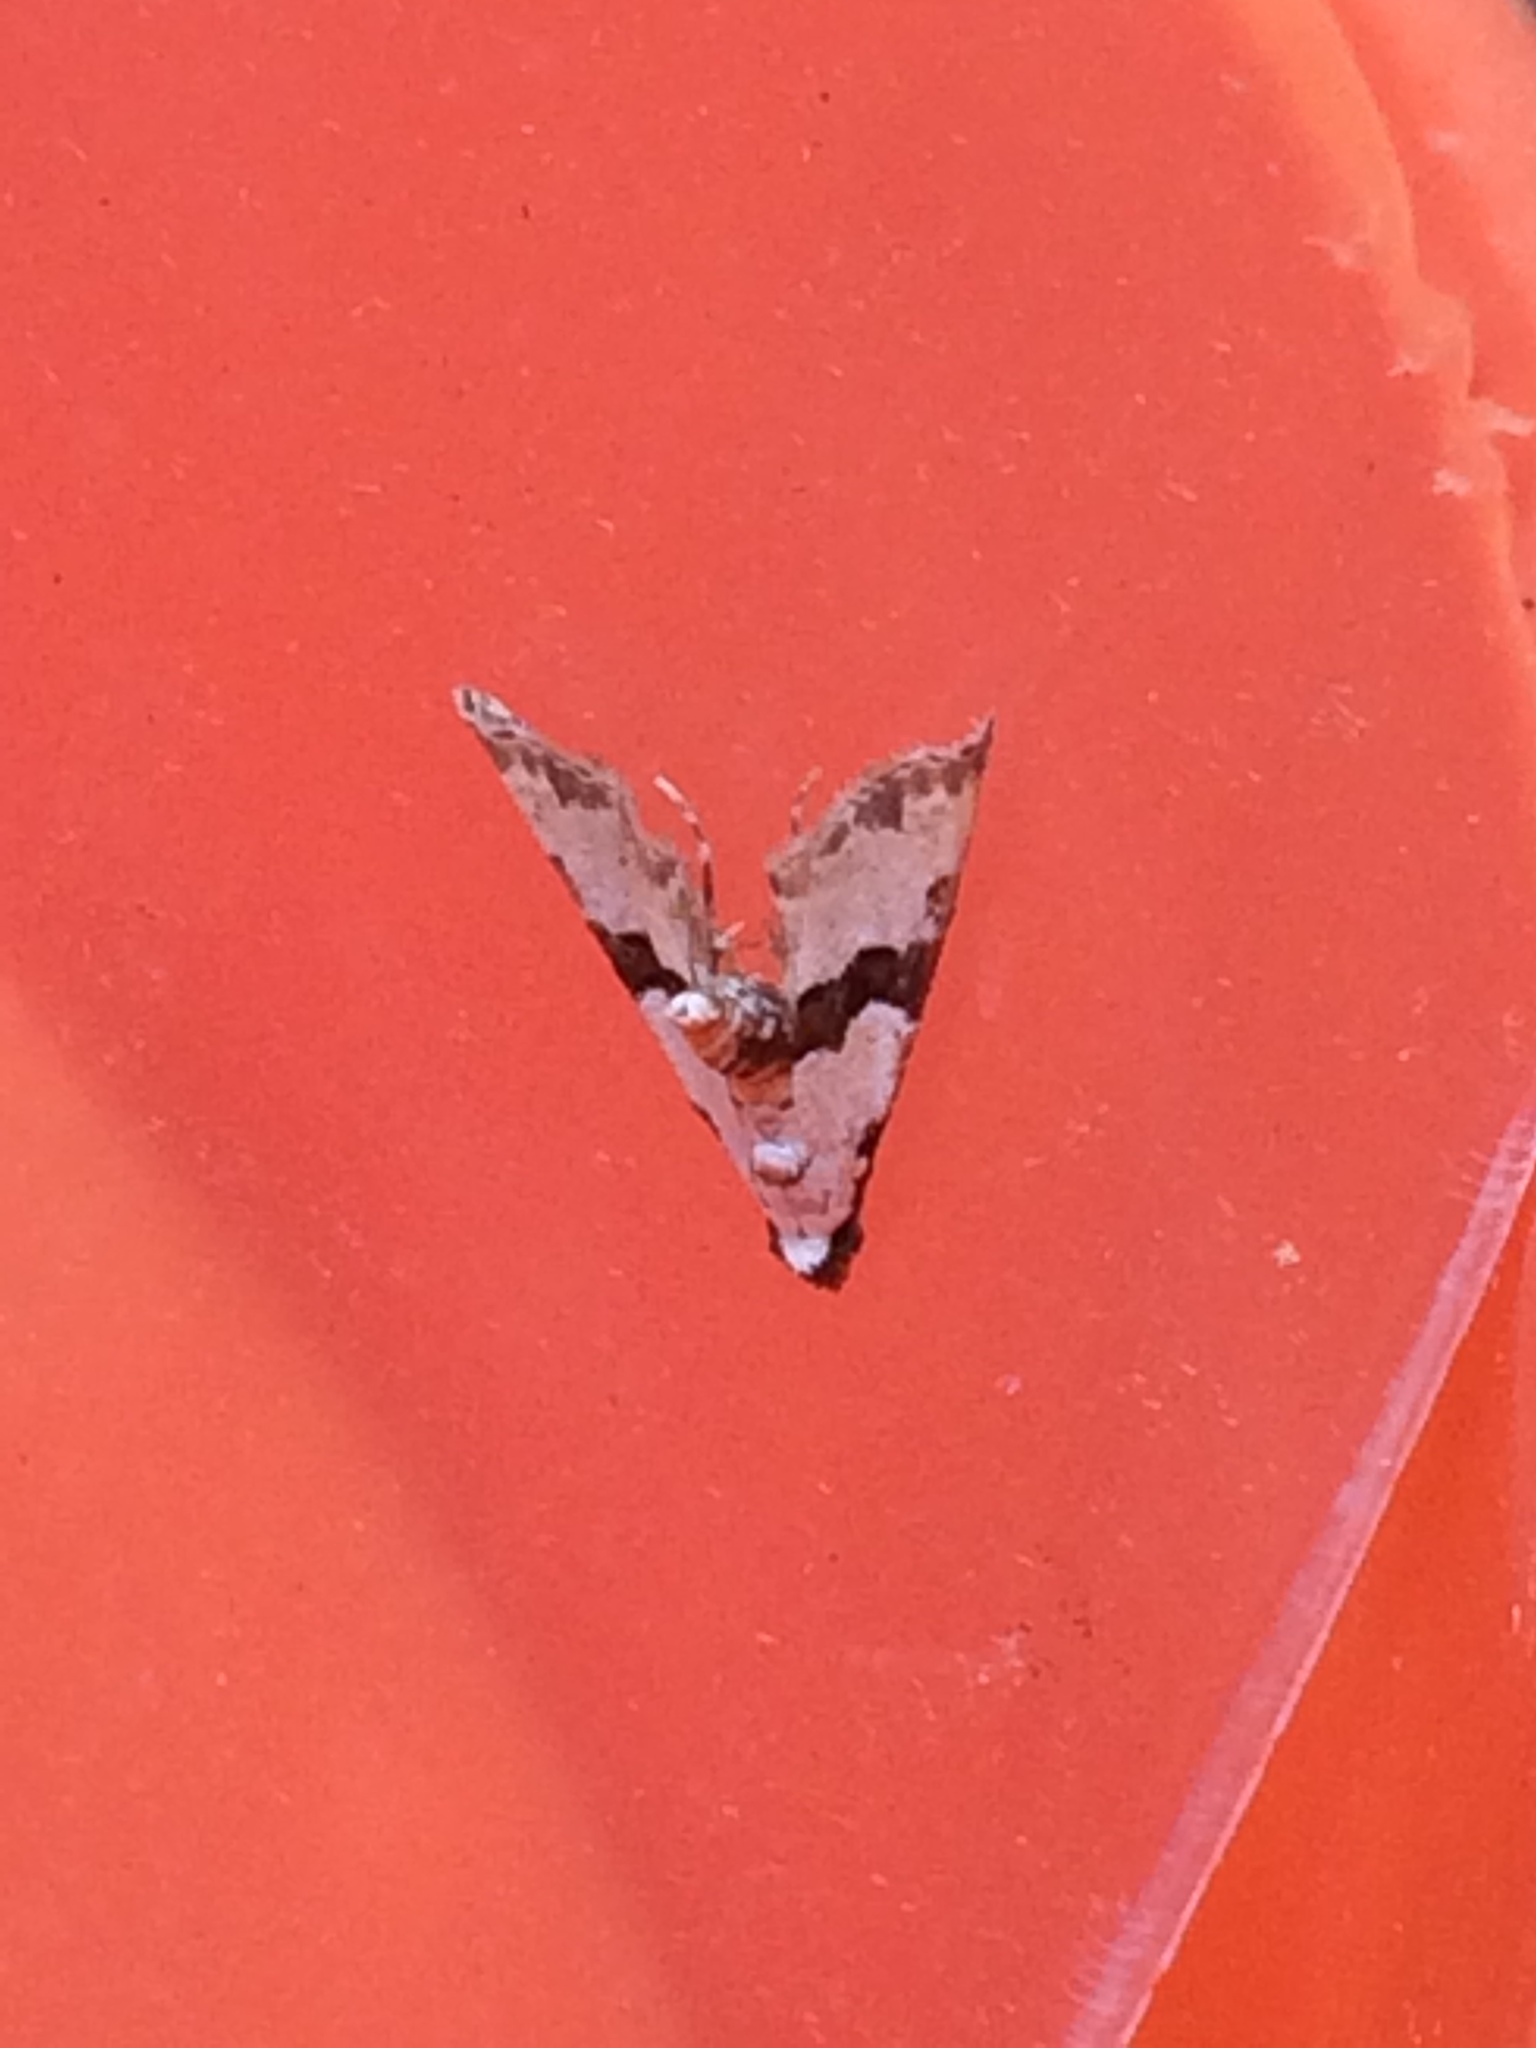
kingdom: Animalia
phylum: Arthropoda
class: Insecta
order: Lepidoptera
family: Noctuidae
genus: Nigetia
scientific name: Nigetia formosalis
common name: Thin-winged owlet
